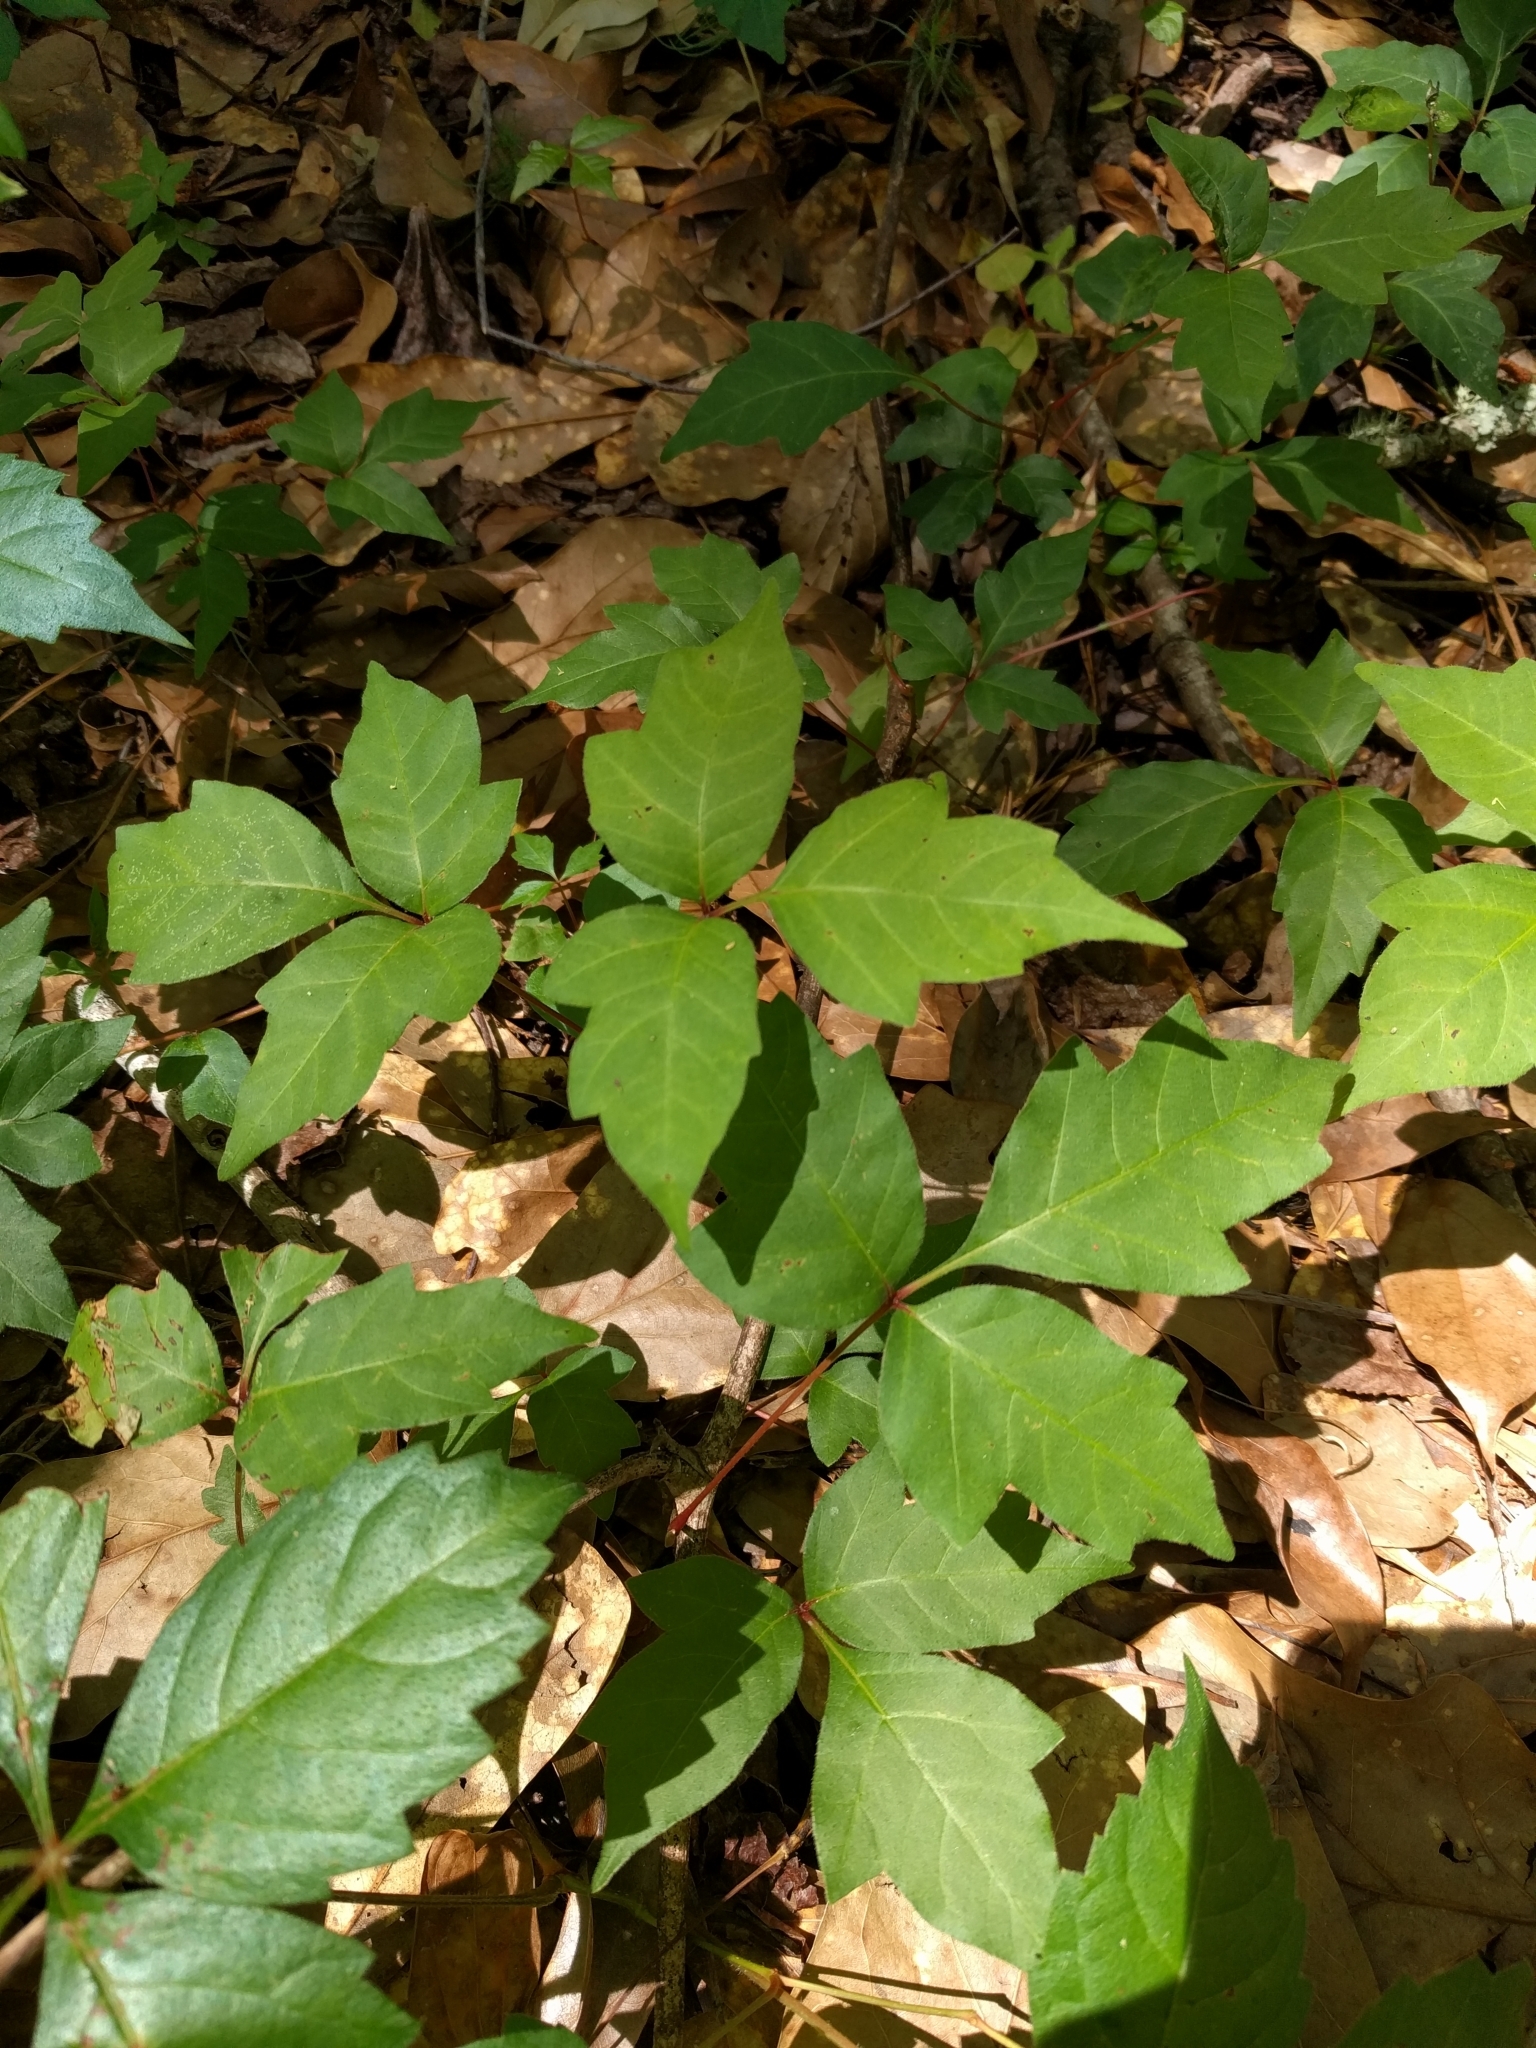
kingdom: Plantae
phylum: Tracheophyta
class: Magnoliopsida
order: Sapindales
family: Anacardiaceae
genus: Toxicodendron
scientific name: Toxicodendron radicans
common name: Poison ivy
